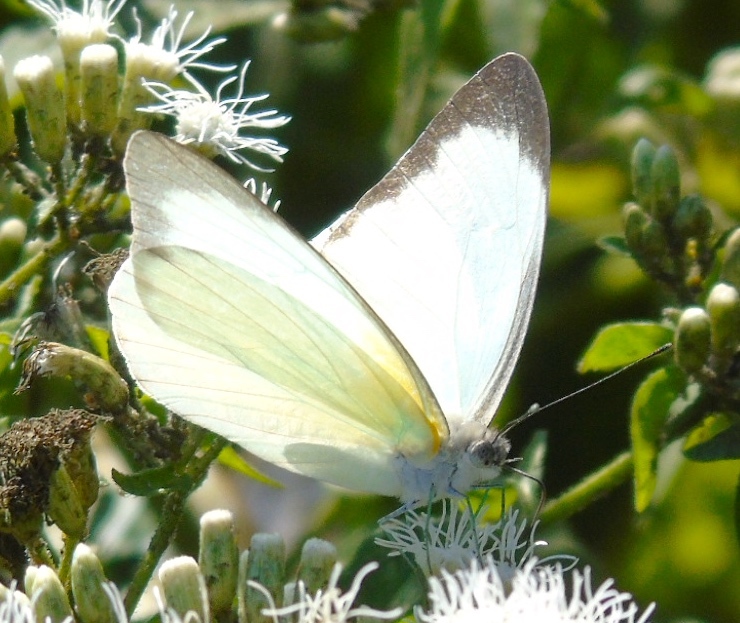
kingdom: Animalia
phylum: Arthropoda
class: Insecta
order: Lepidoptera
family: Pieridae
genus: Ascia
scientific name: Ascia monuste
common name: Great southern white
